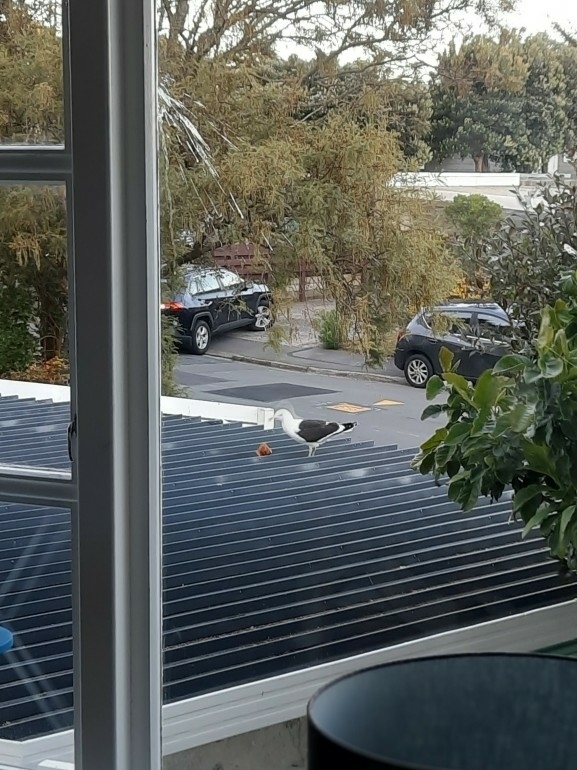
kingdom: Animalia
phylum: Chordata
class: Aves
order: Charadriiformes
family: Laridae
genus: Larus
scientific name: Larus dominicanus
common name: Kelp gull
